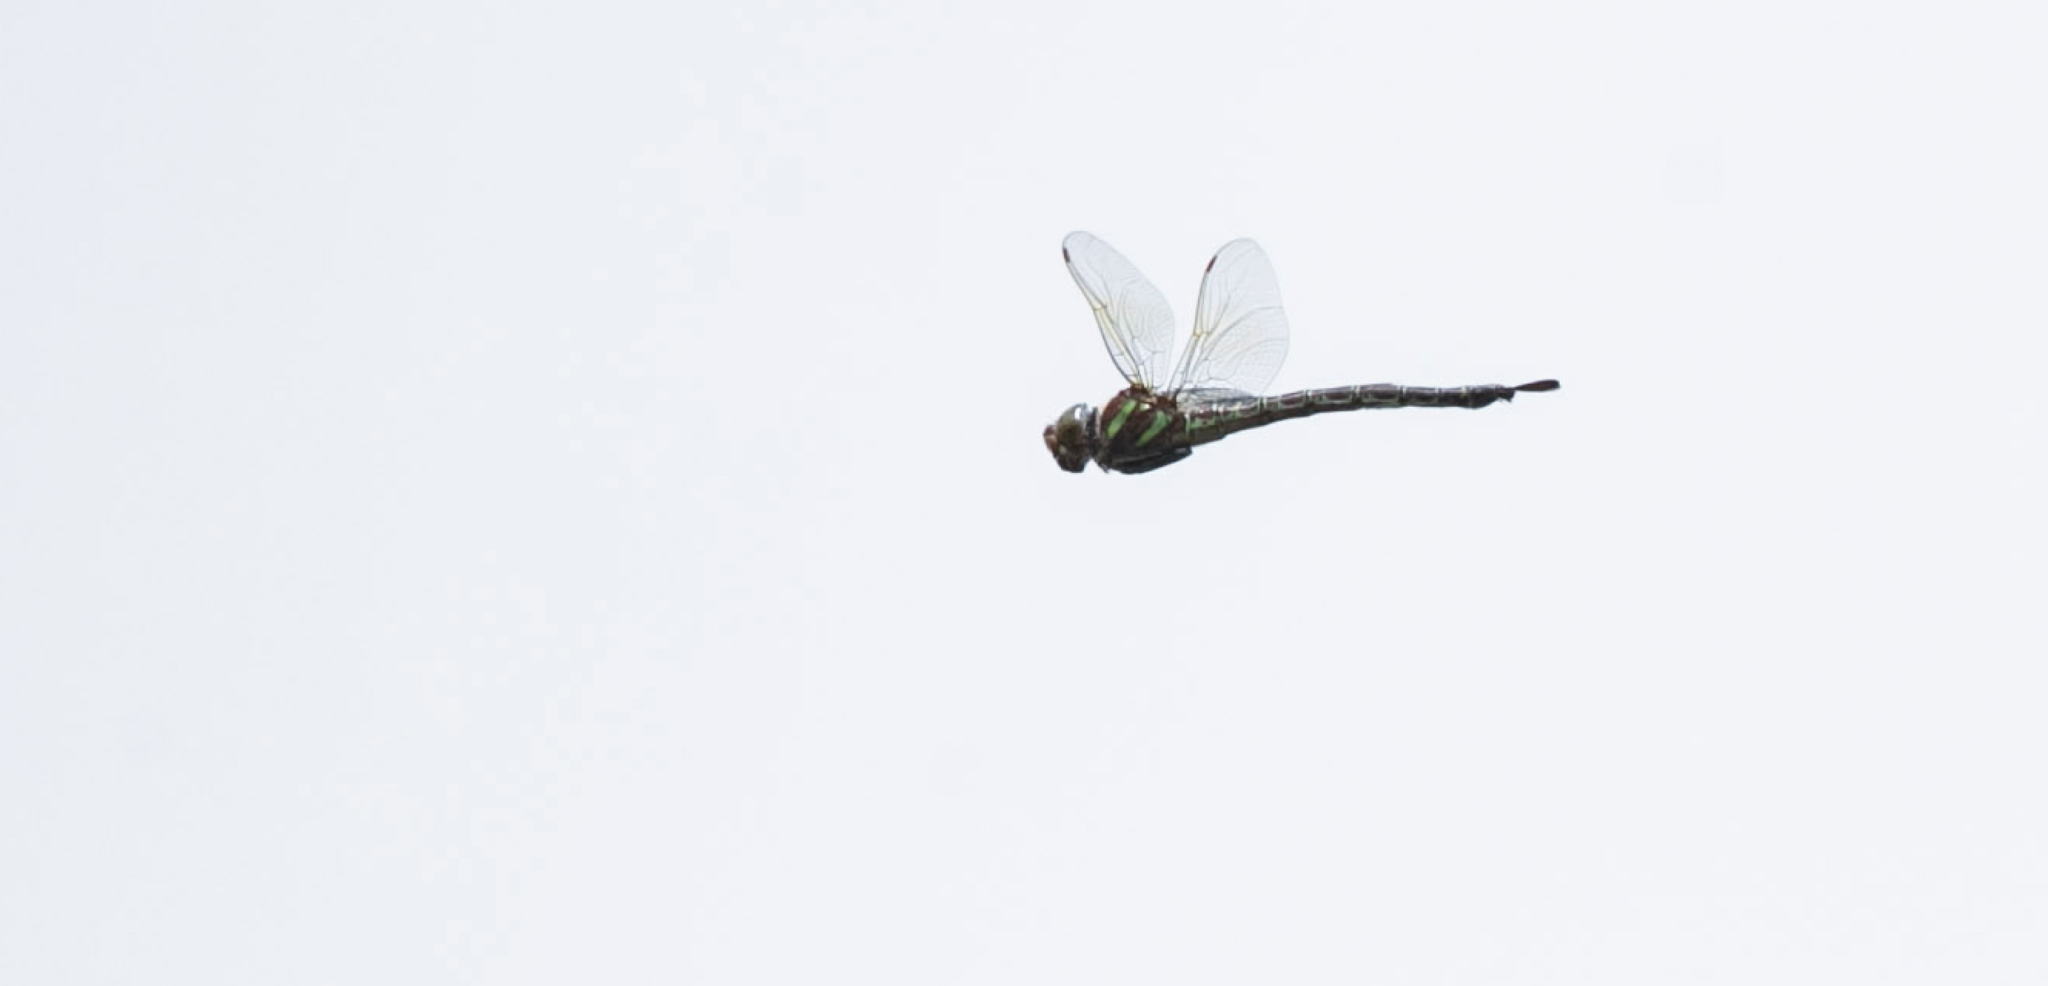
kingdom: Animalia
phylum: Arthropoda
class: Insecta
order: Odonata
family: Aeshnidae
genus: Epiaeschna
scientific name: Epiaeschna heros
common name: Swamp darner
